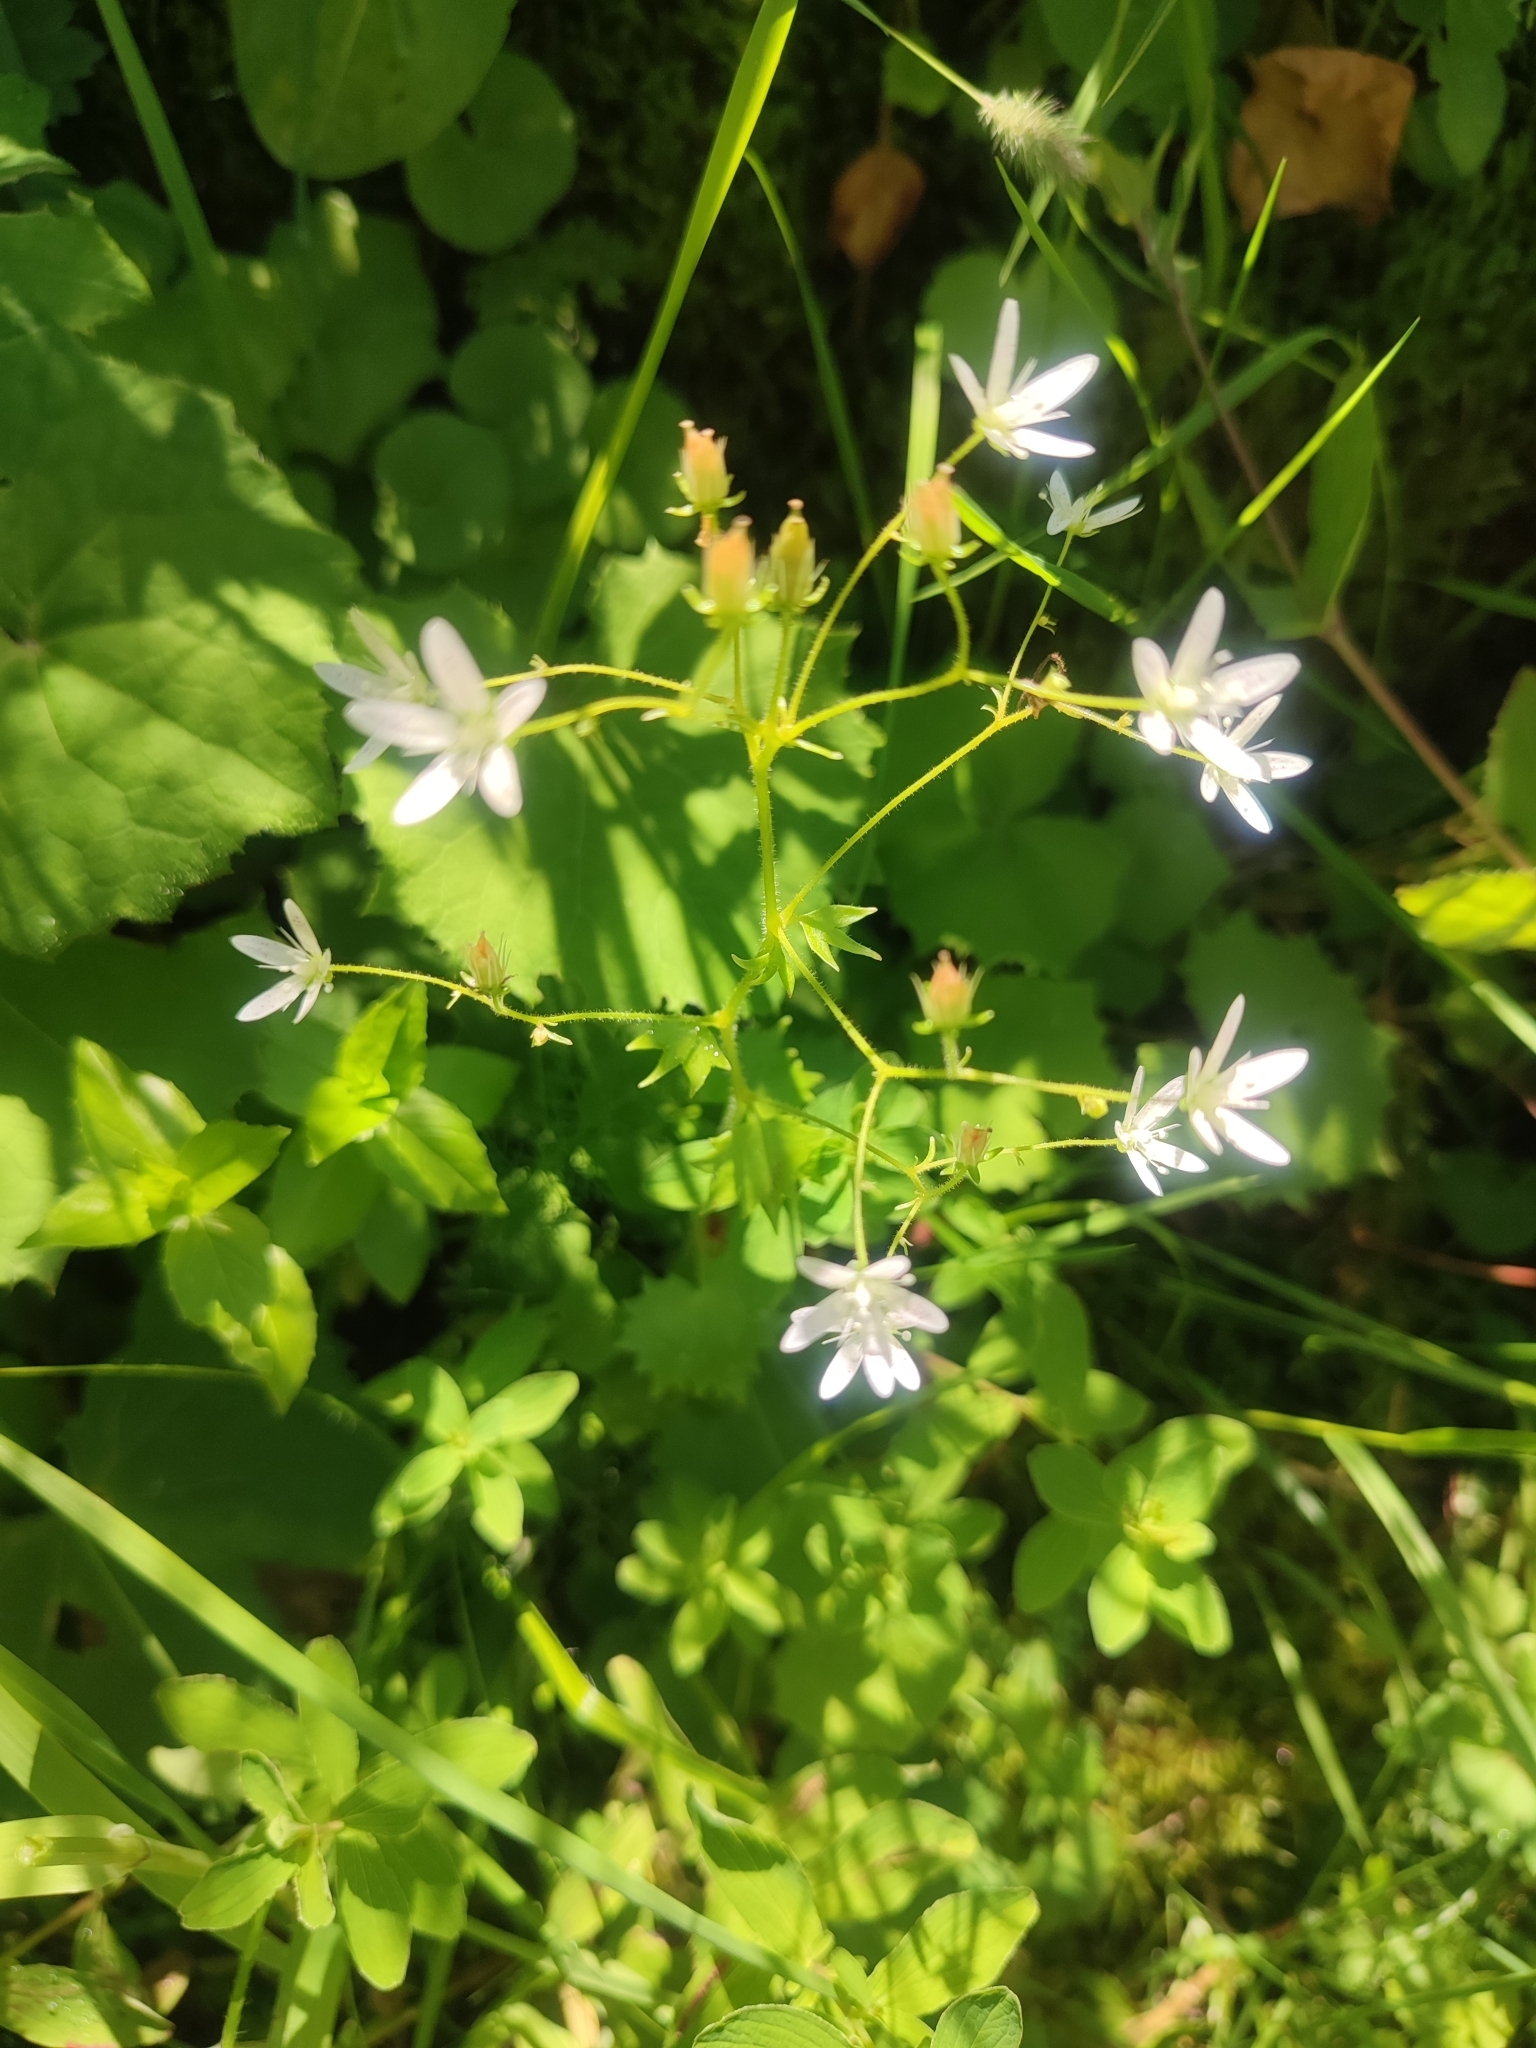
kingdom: Plantae
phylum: Tracheophyta
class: Magnoliopsida
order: Saxifragales
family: Saxifragaceae
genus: Saxifraga
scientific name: Saxifraga rotundifolia
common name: Round-leaved saxifrage
